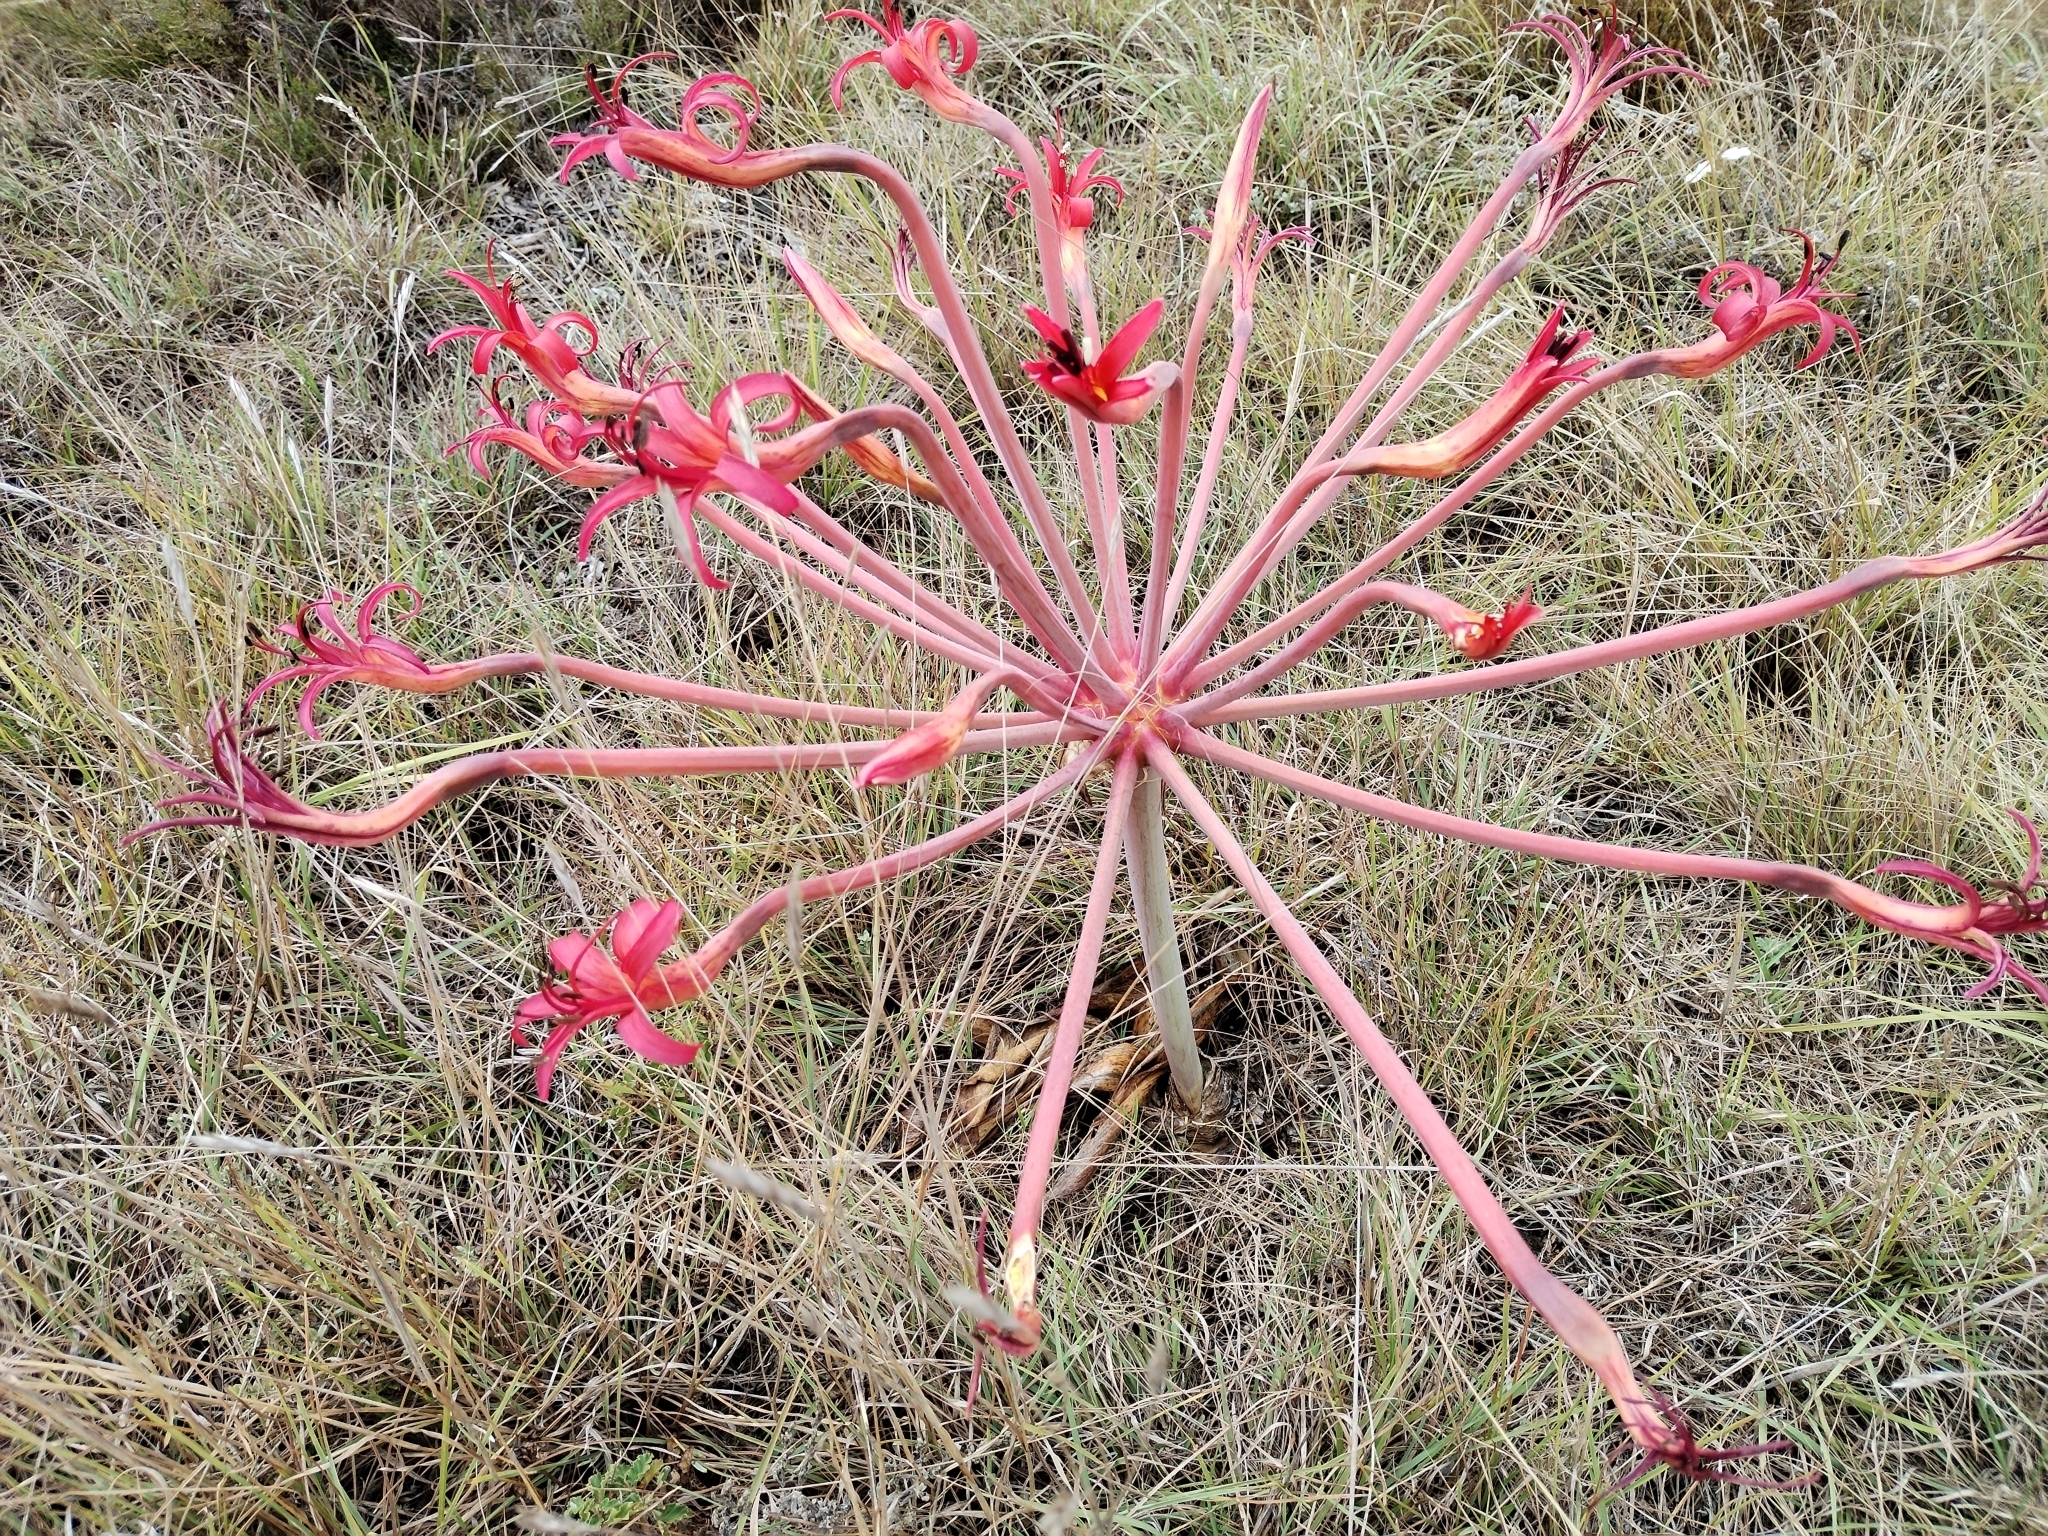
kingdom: Plantae
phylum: Tracheophyta
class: Liliopsida
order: Asparagales
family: Amaryllidaceae
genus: Brunsvigia
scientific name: Brunsvigia litoralis
